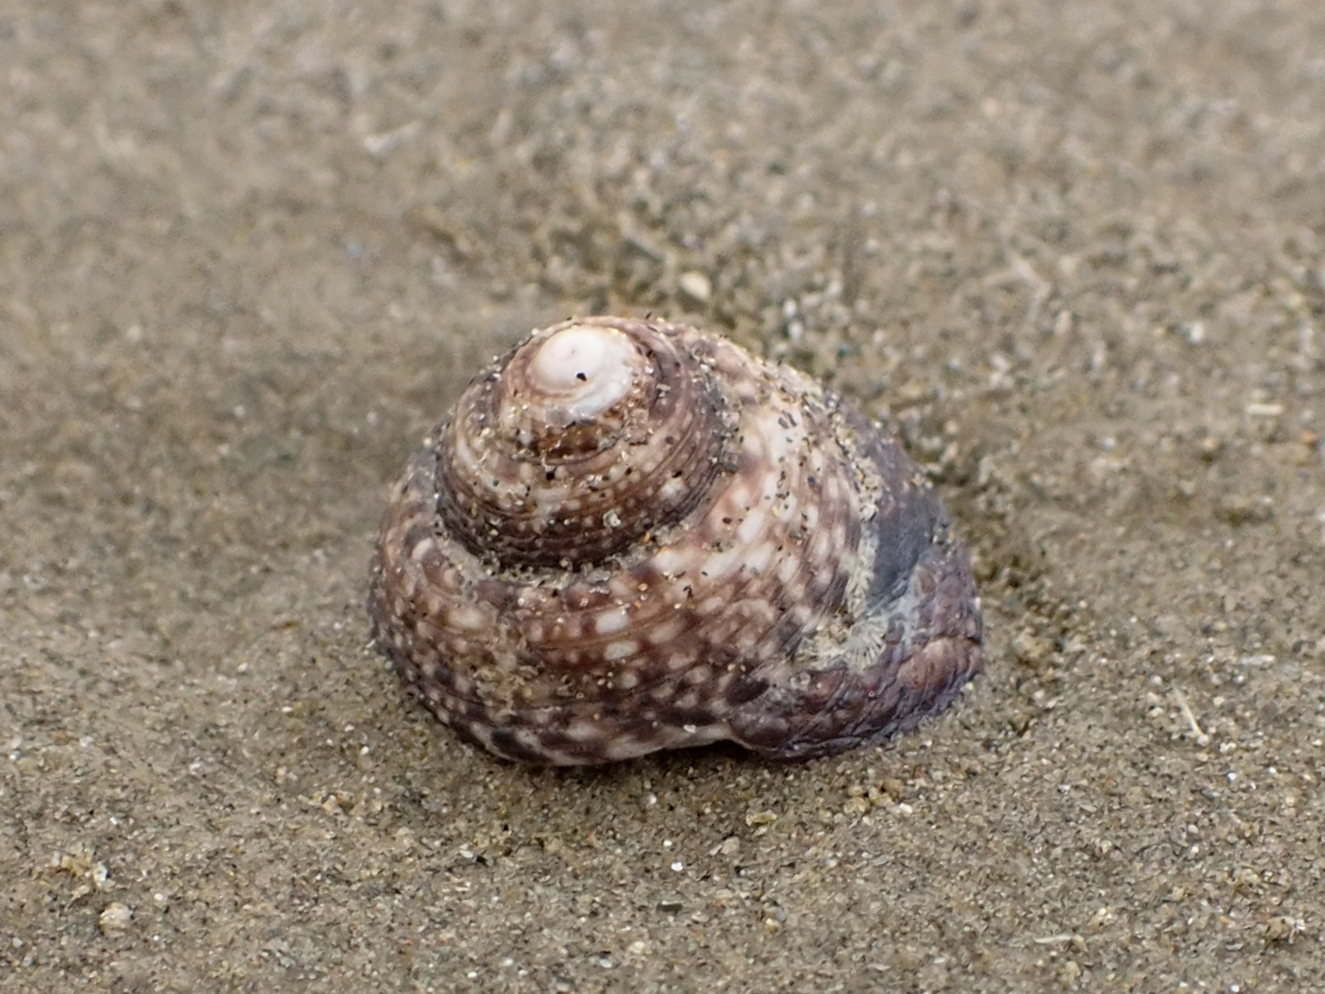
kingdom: Animalia
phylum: Mollusca
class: Gastropoda
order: Trochida
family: Trochidae
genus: Coelotrochus
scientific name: Coelotrochus tiaratus
